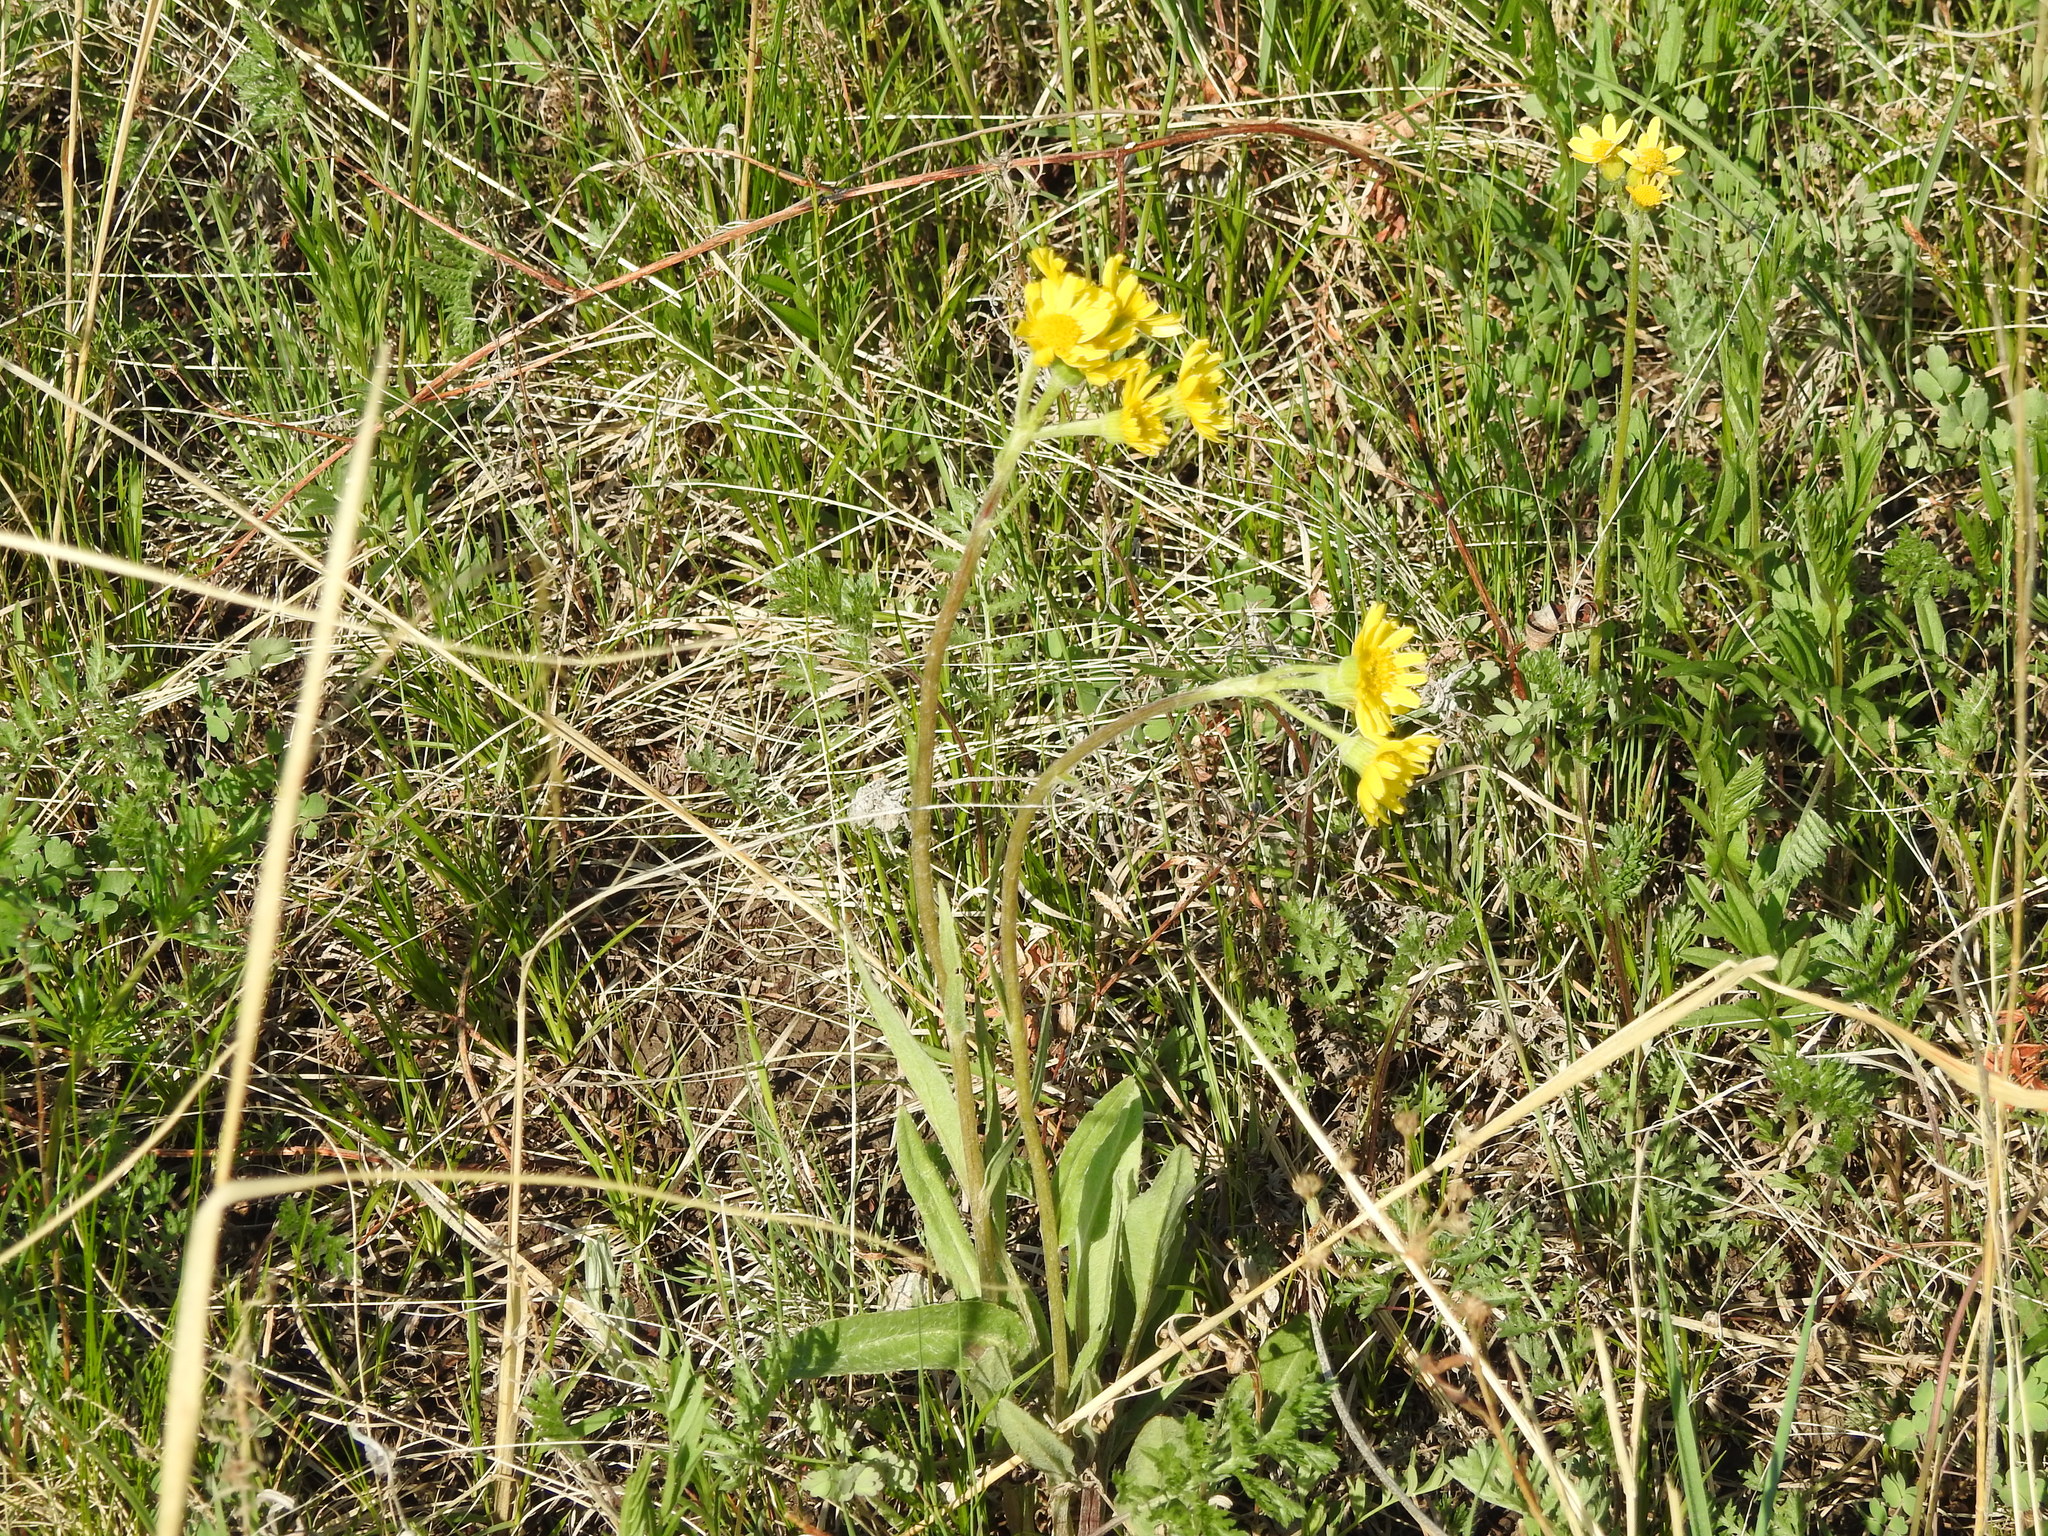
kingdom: Plantae
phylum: Tracheophyta
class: Magnoliopsida
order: Asterales
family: Asteraceae
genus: Tephroseris
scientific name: Tephroseris integrifolia
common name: Field fleawort
